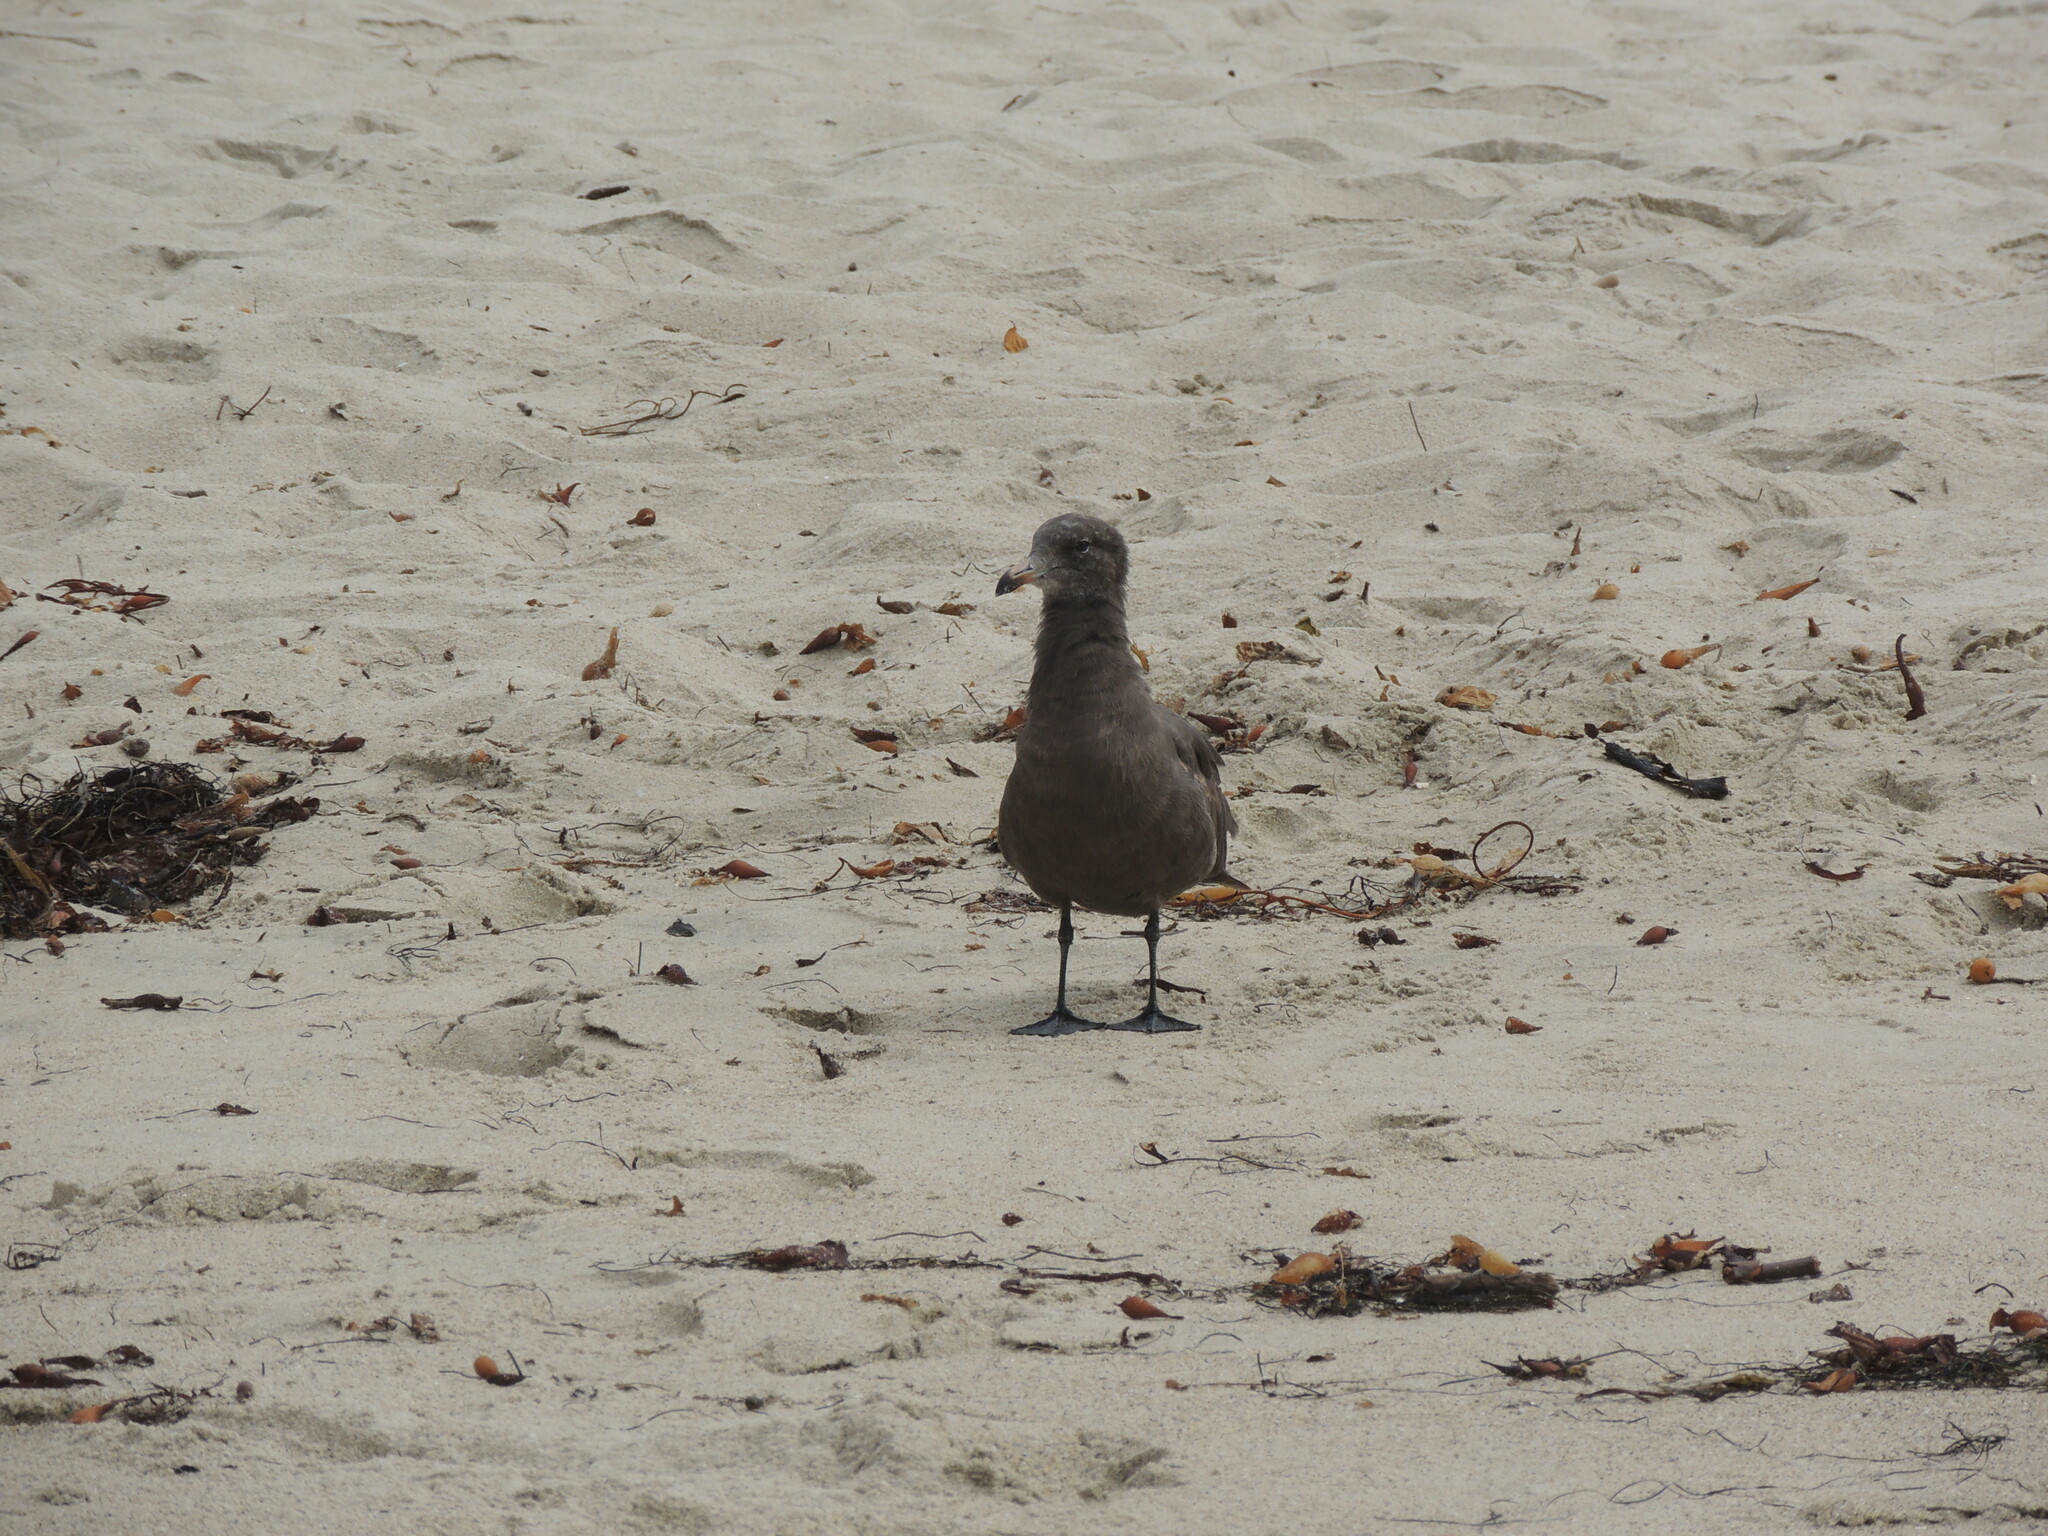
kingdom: Animalia
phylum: Chordata
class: Aves
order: Charadriiformes
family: Laridae
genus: Larus
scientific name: Larus heermanni
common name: Heermann's gull
